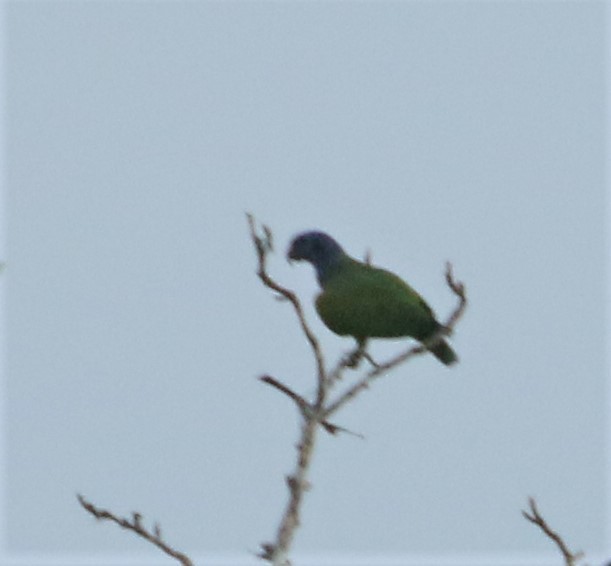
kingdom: Animalia
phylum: Chordata
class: Aves
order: Psittaciformes
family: Psittacidae
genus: Pionus
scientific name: Pionus menstruus
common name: Blue-headed parrot
